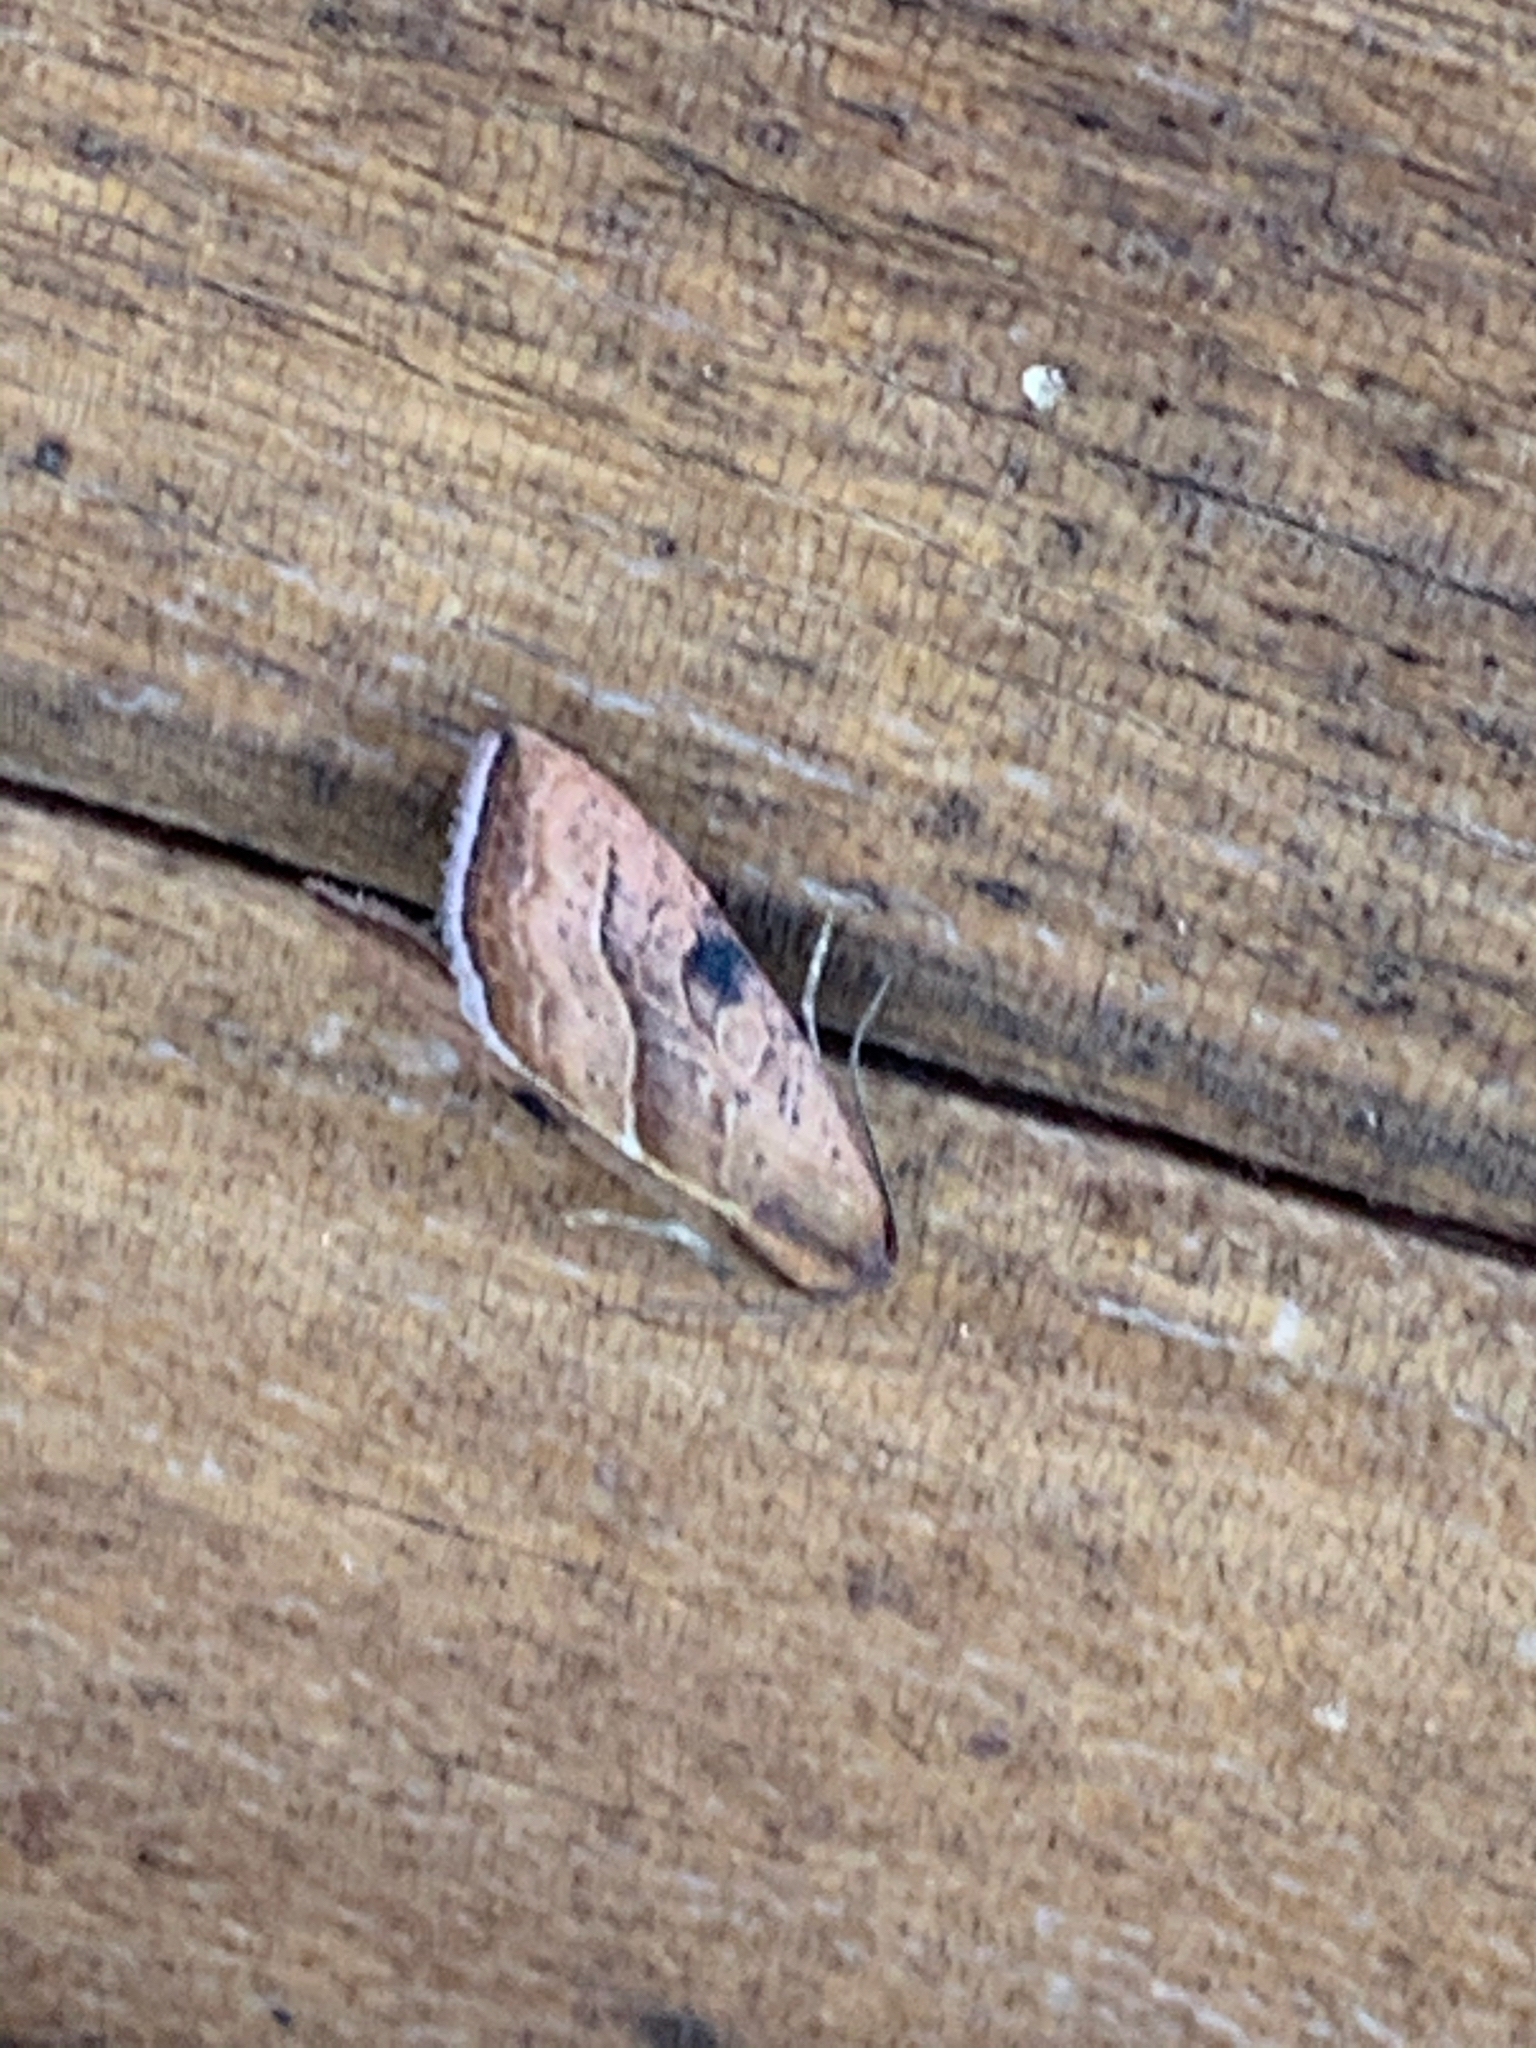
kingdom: Animalia
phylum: Arthropoda
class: Insecta
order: Lepidoptera
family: Noctuidae
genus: Galgula
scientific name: Galgula partita
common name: Wedgeling
